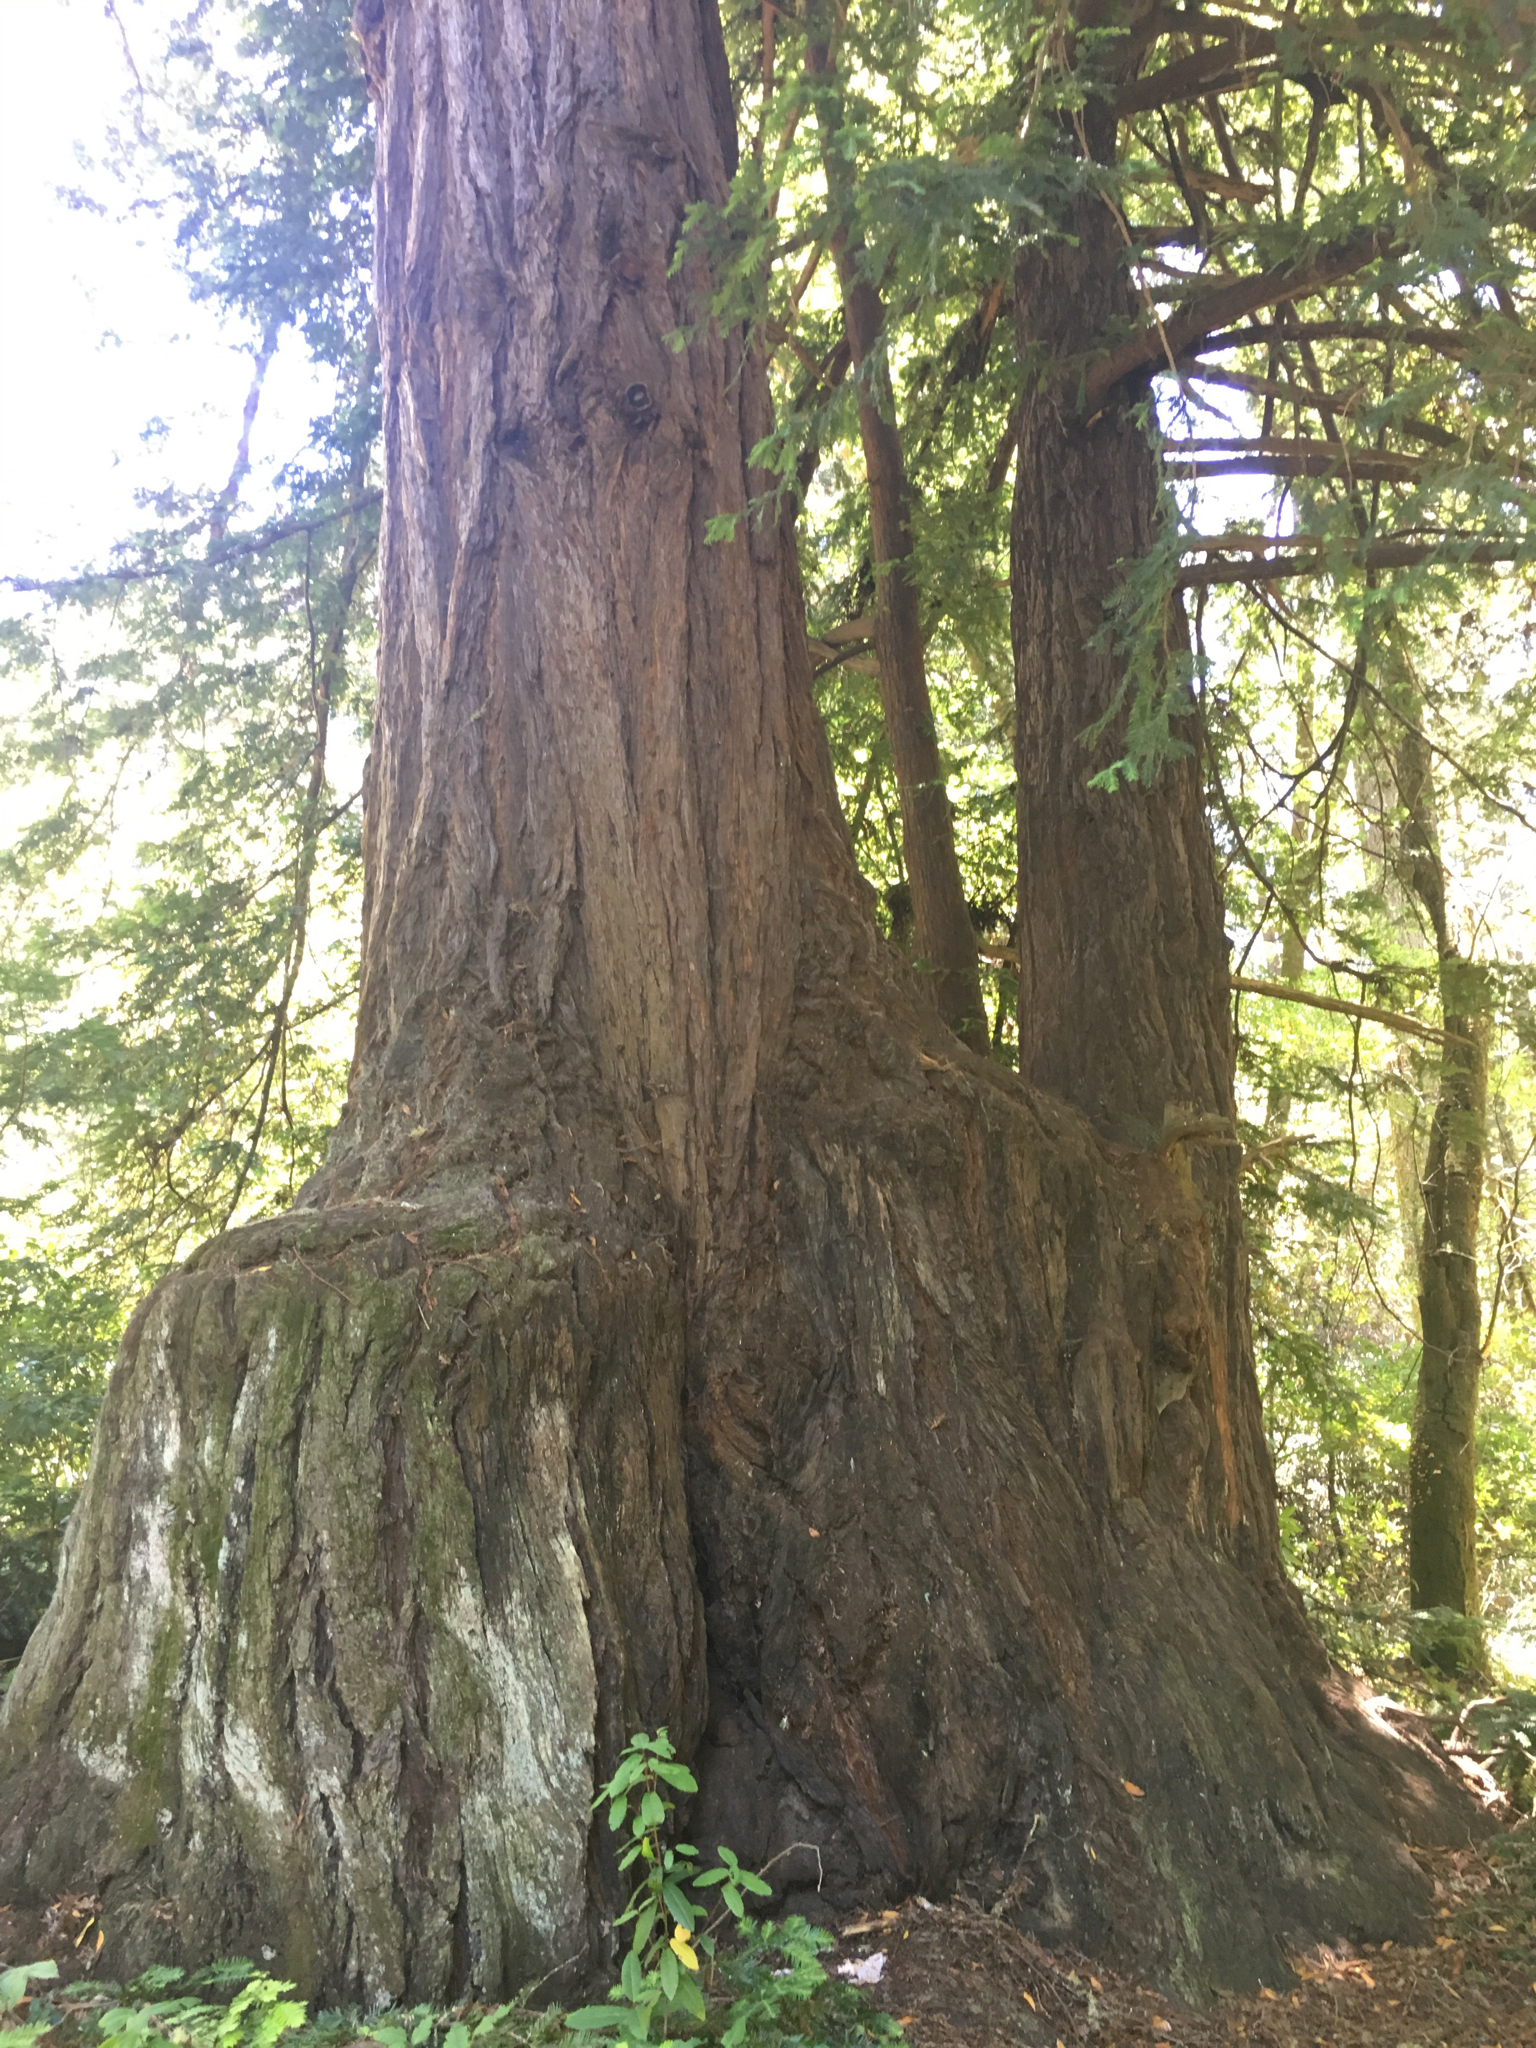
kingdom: Plantae
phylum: Tracheophyta
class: Pinopsida
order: Pinales
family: Cupressaceae
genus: Sequoia
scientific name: Sequoia sempervirens
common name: Coast redwood
